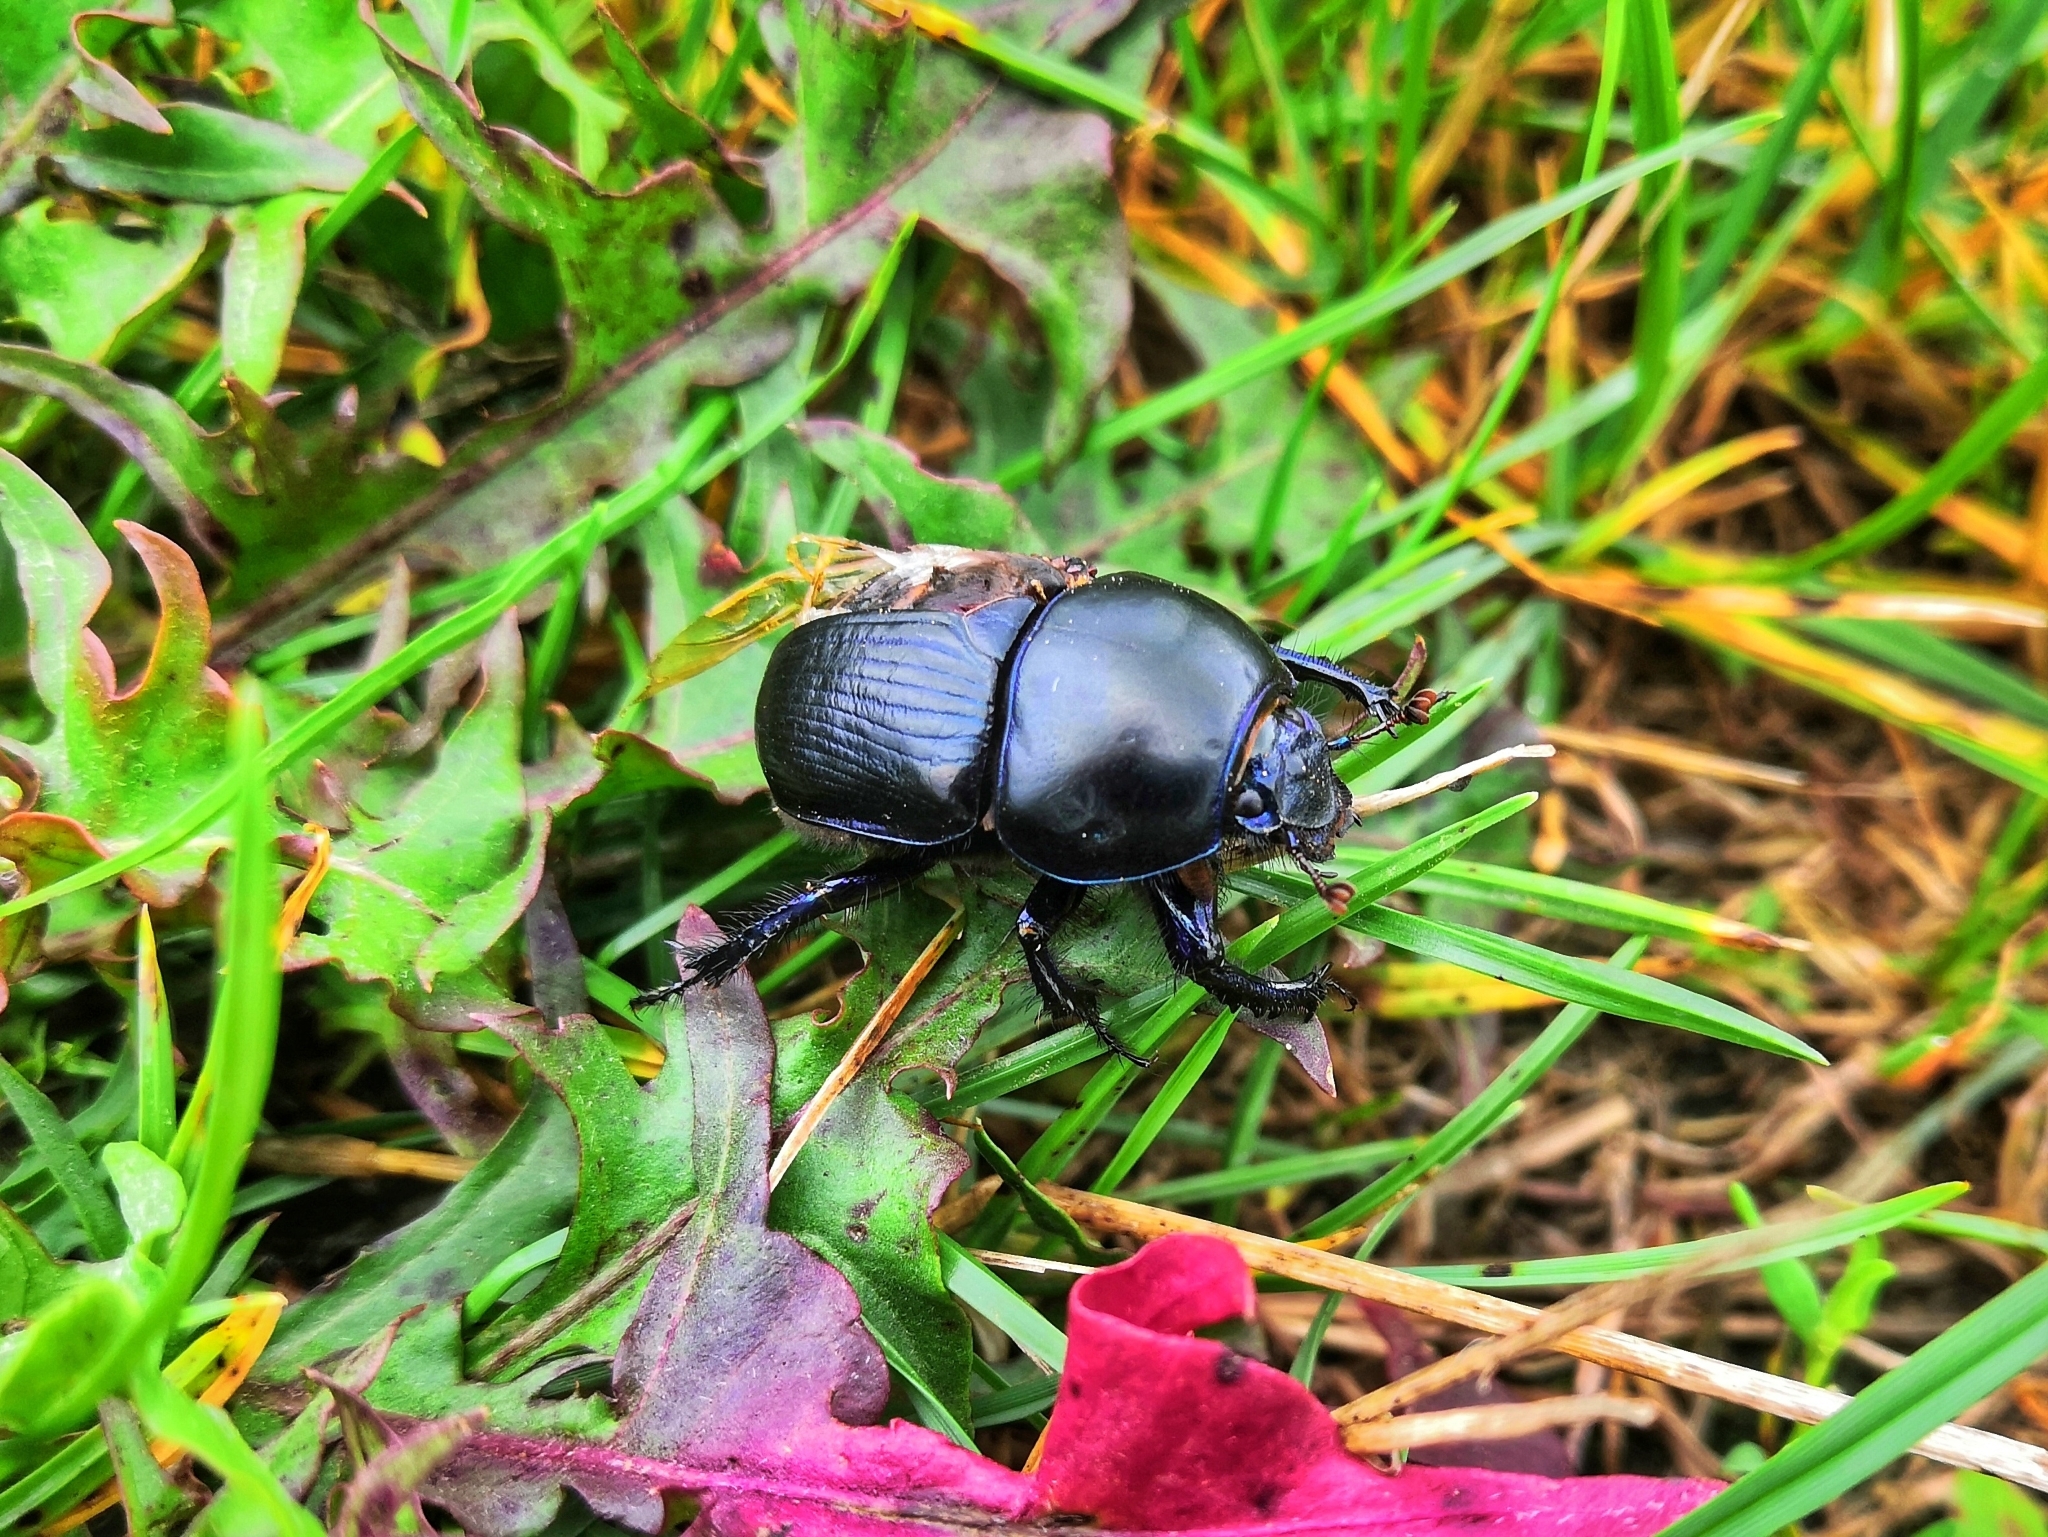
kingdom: Animalia
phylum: Arthropoda
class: Insecta
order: Coleoptera
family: Geotrupidae
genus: Anoplotrupes
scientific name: Anoplotrupes stercorosus
